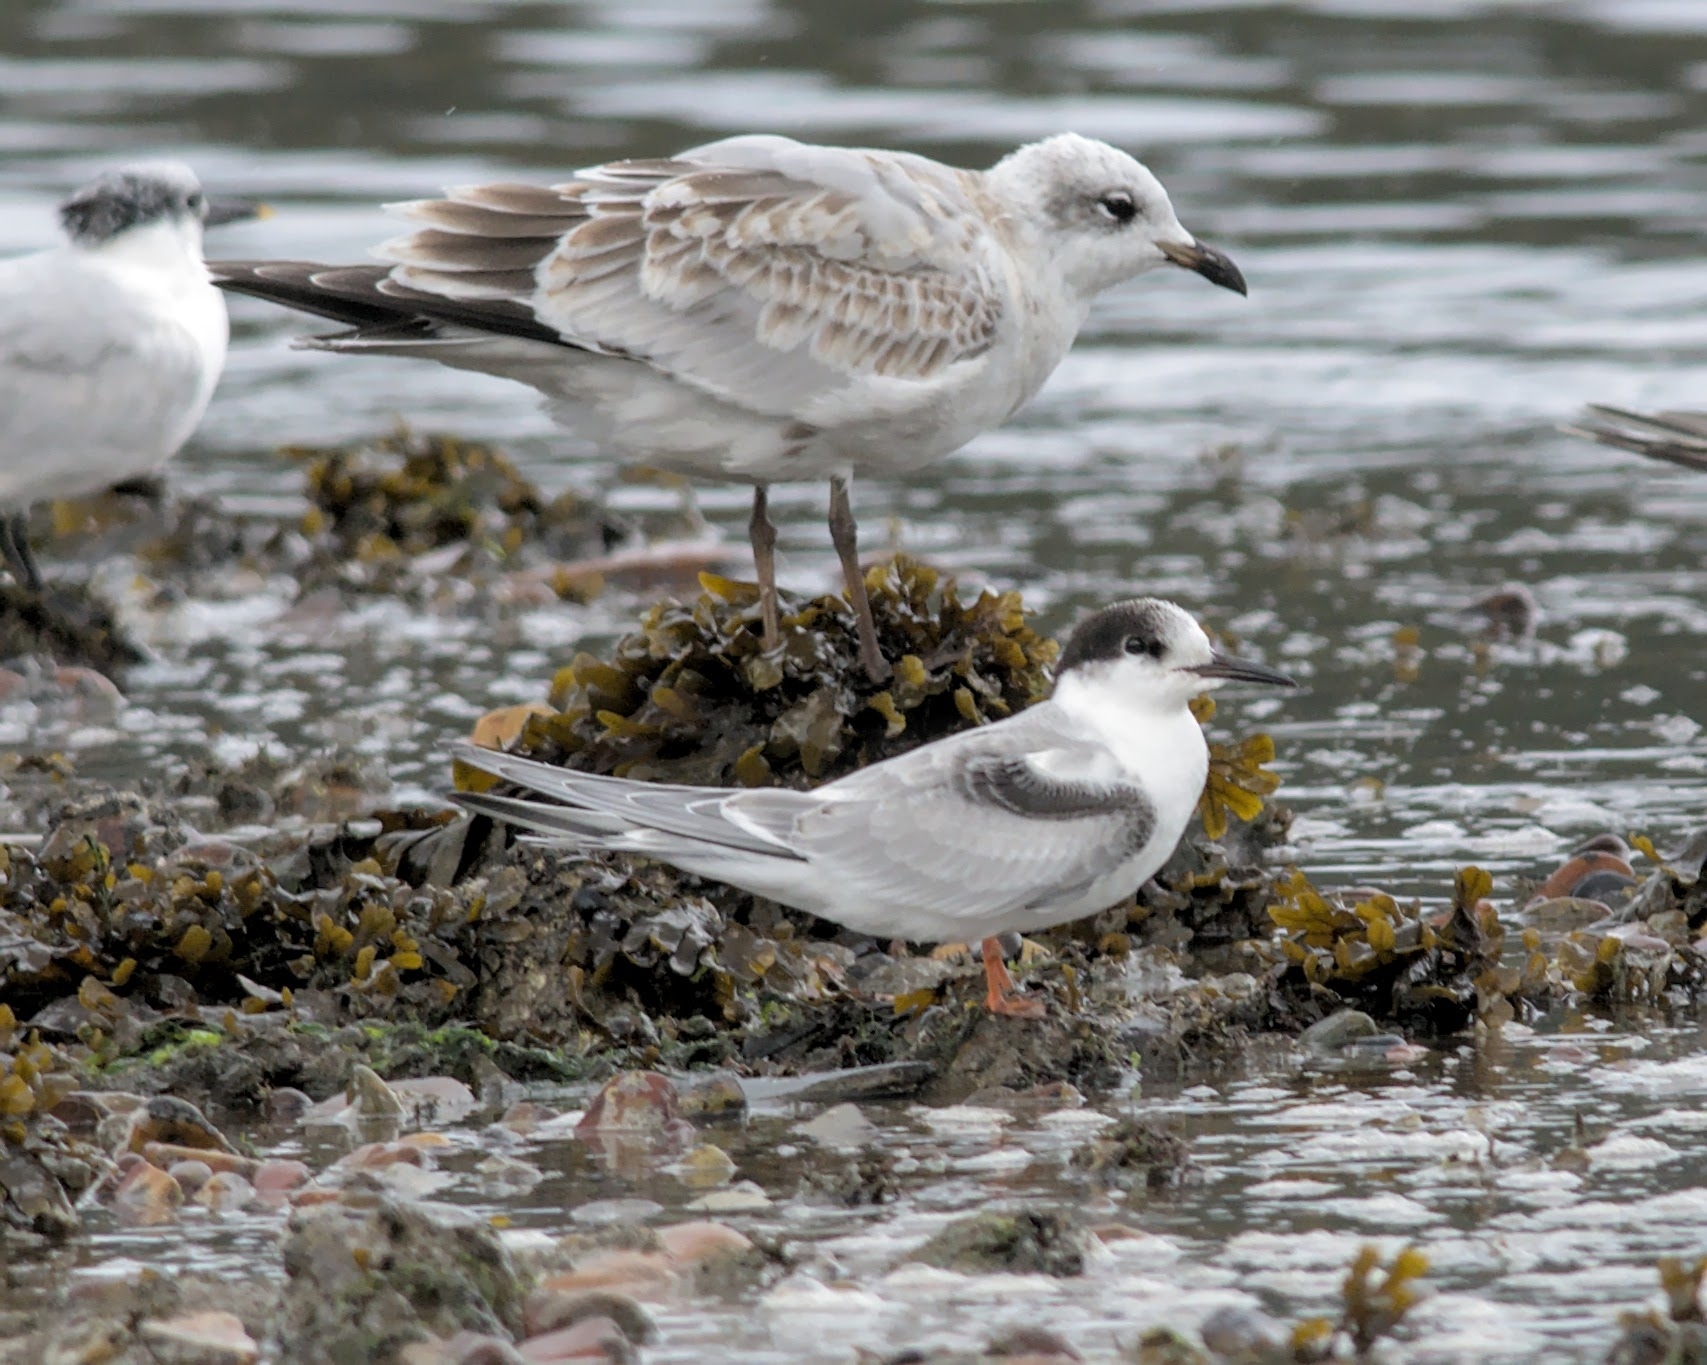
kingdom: Animalia
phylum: Chordata
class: Aves
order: Charadriiformes
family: Laridae
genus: Sterna
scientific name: Sterna paradisaea
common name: Arctic tern
